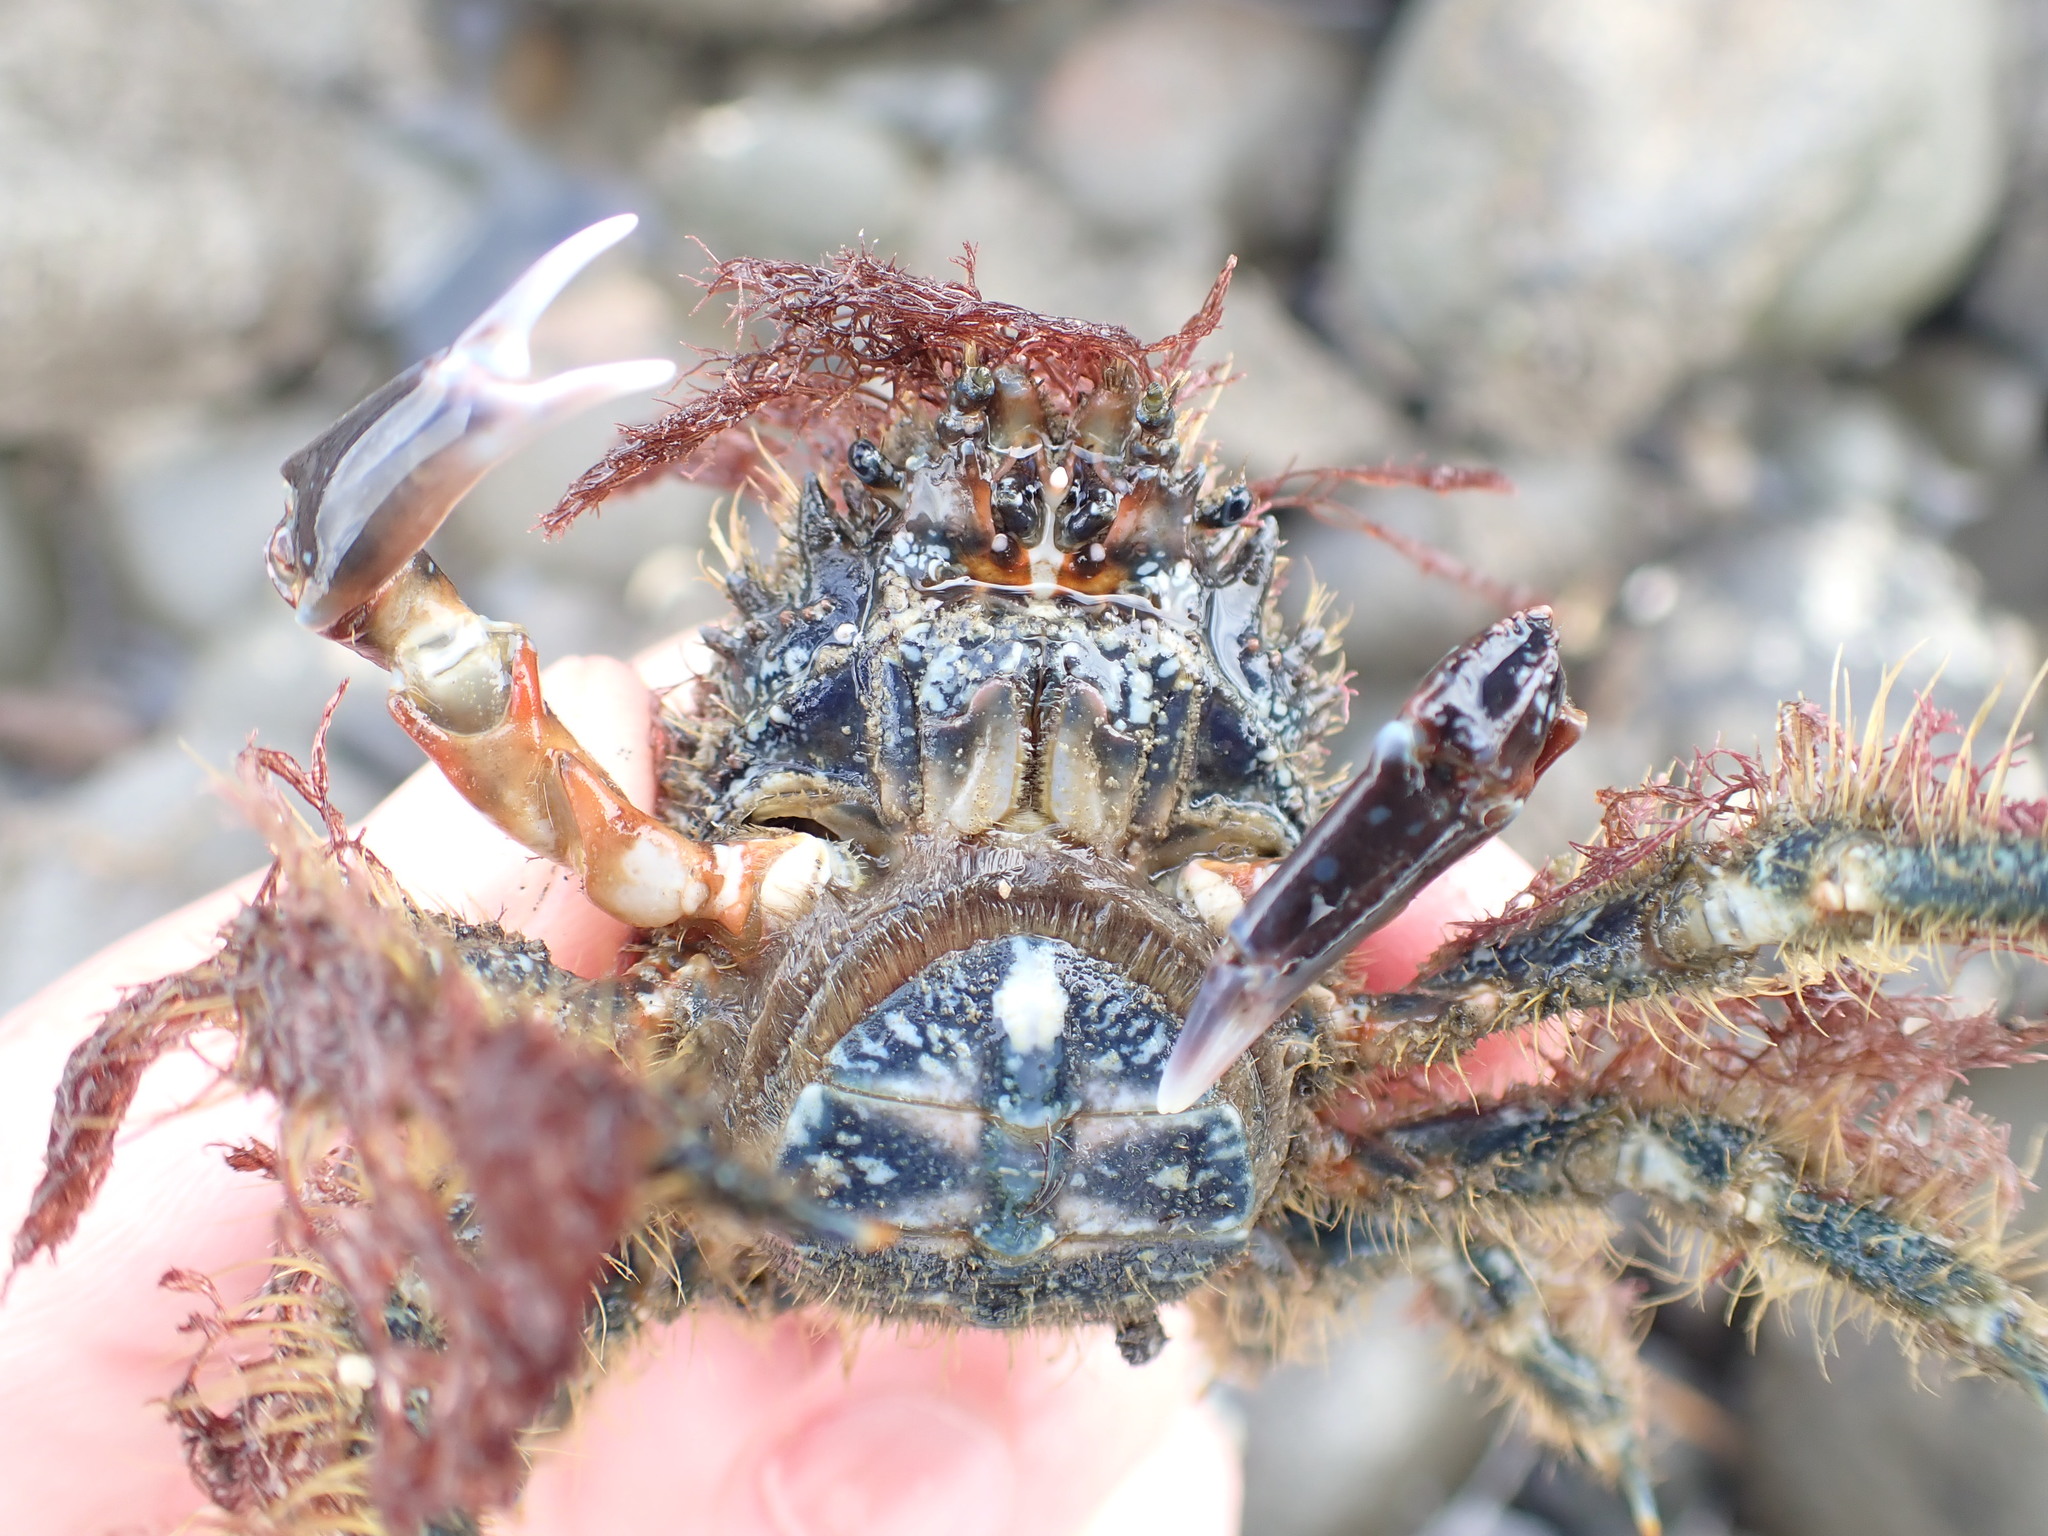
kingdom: Animalia
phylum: Arthropoda
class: Malacostraca
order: Decapoda
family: Majidae
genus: Notomithrax
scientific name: Notomithrax ursus
